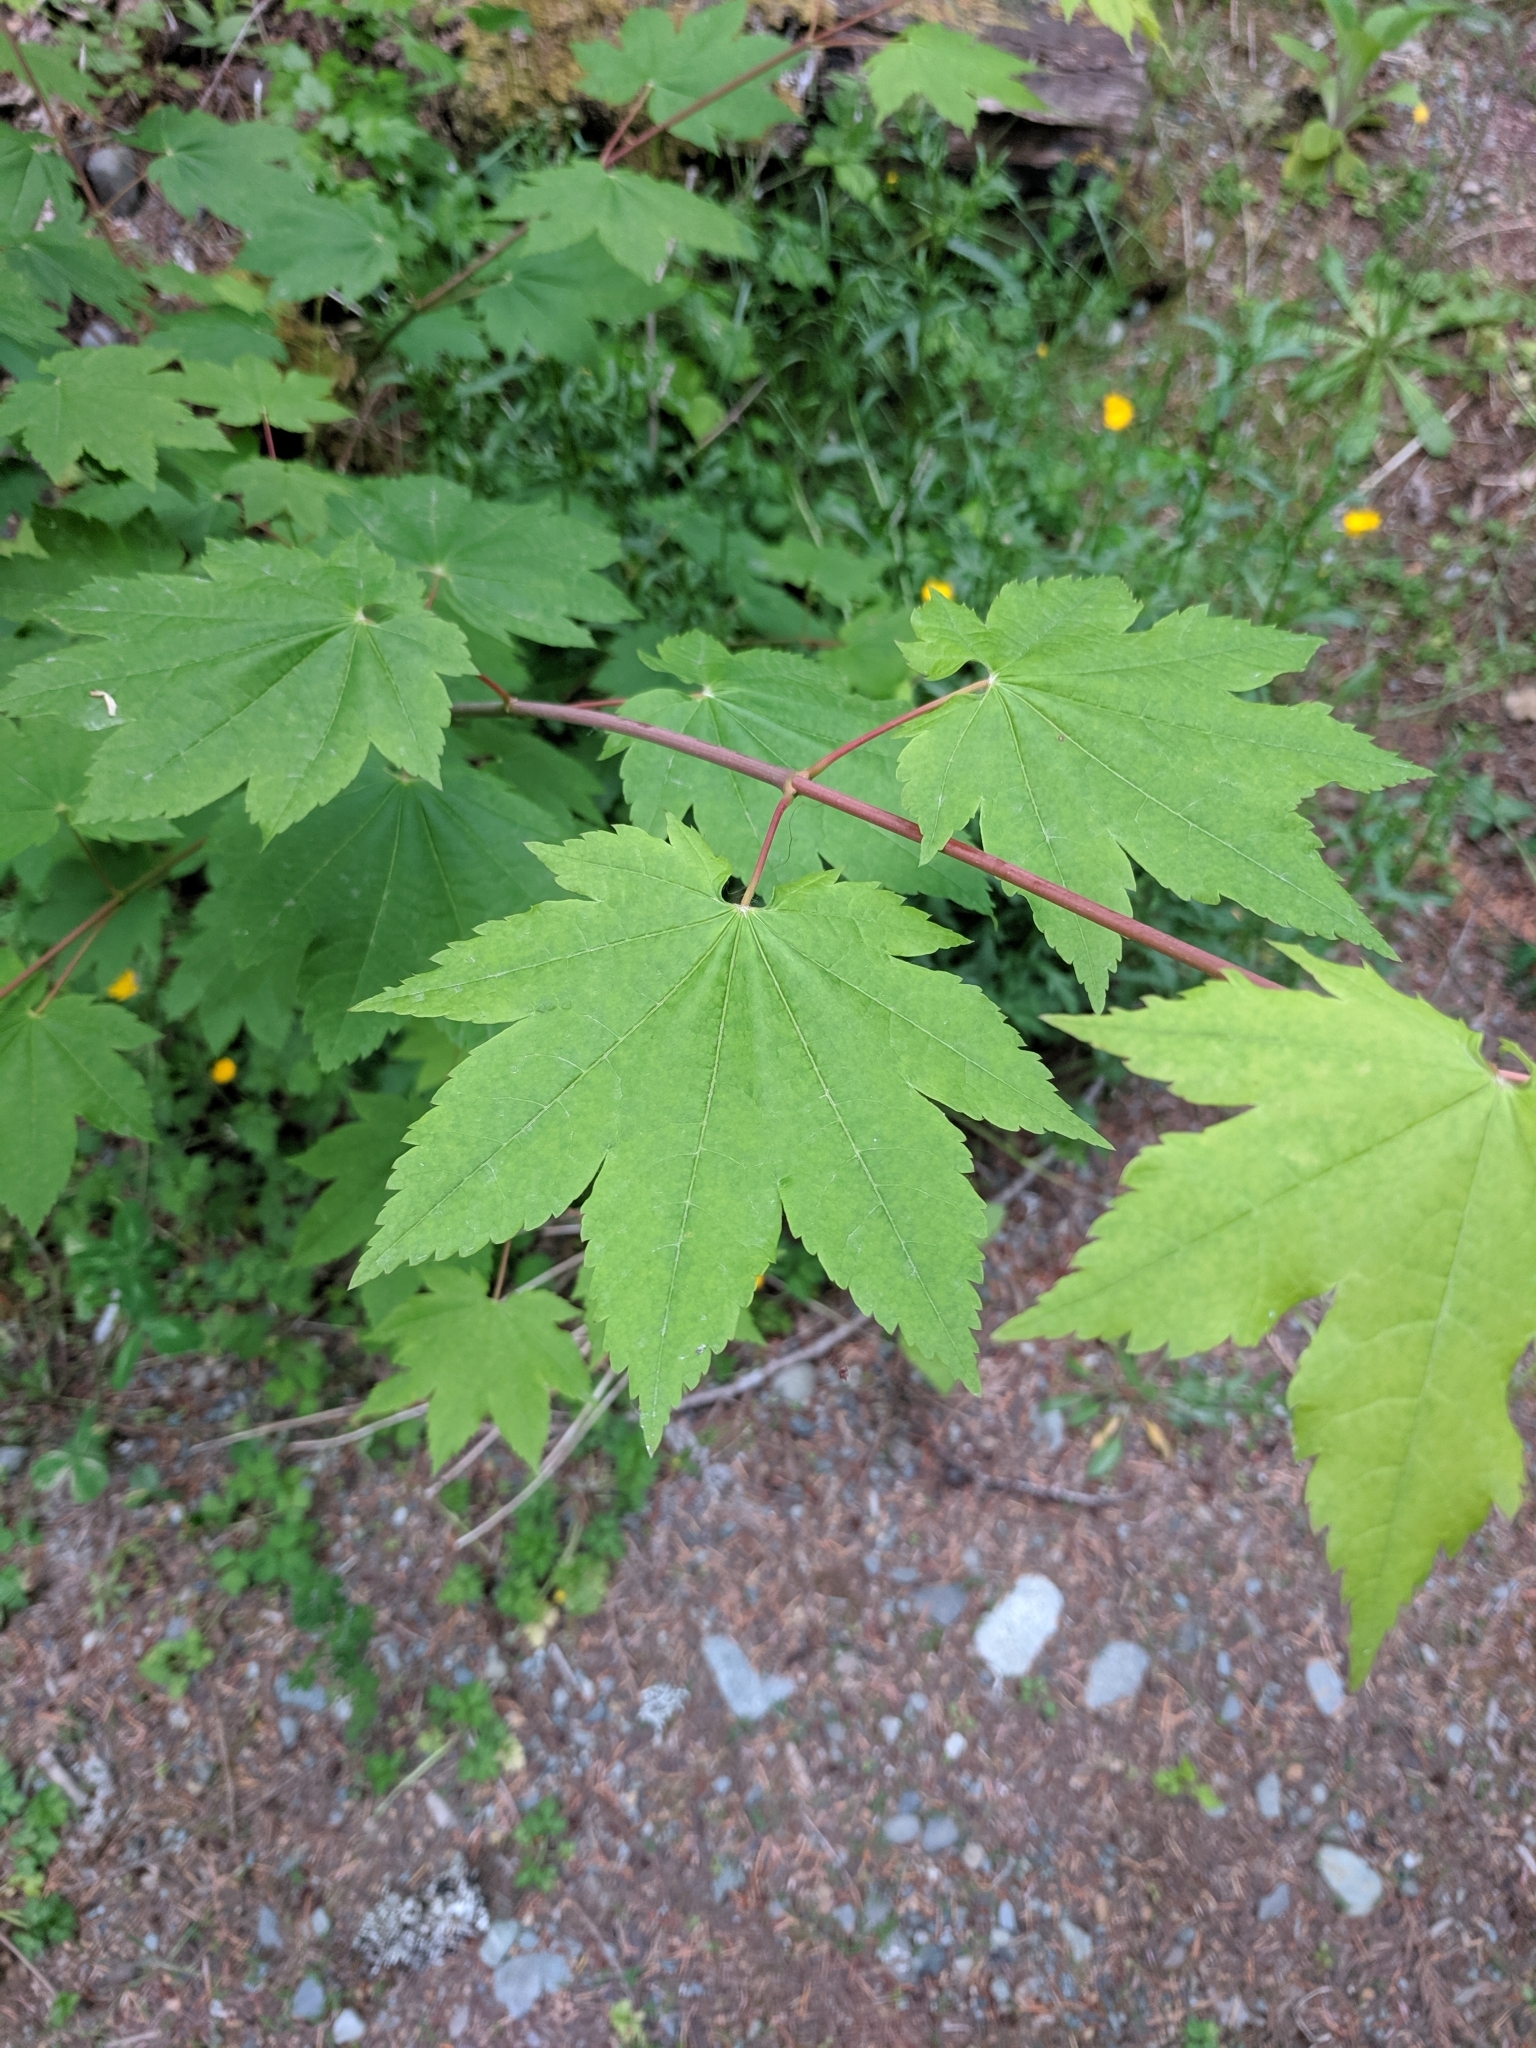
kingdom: Plantae
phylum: Tracheophyta
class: Magnoliopsida
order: Sapindales
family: Sapindaceae
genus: Acer
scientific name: Acer glabrum
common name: Rocky mountain maple
